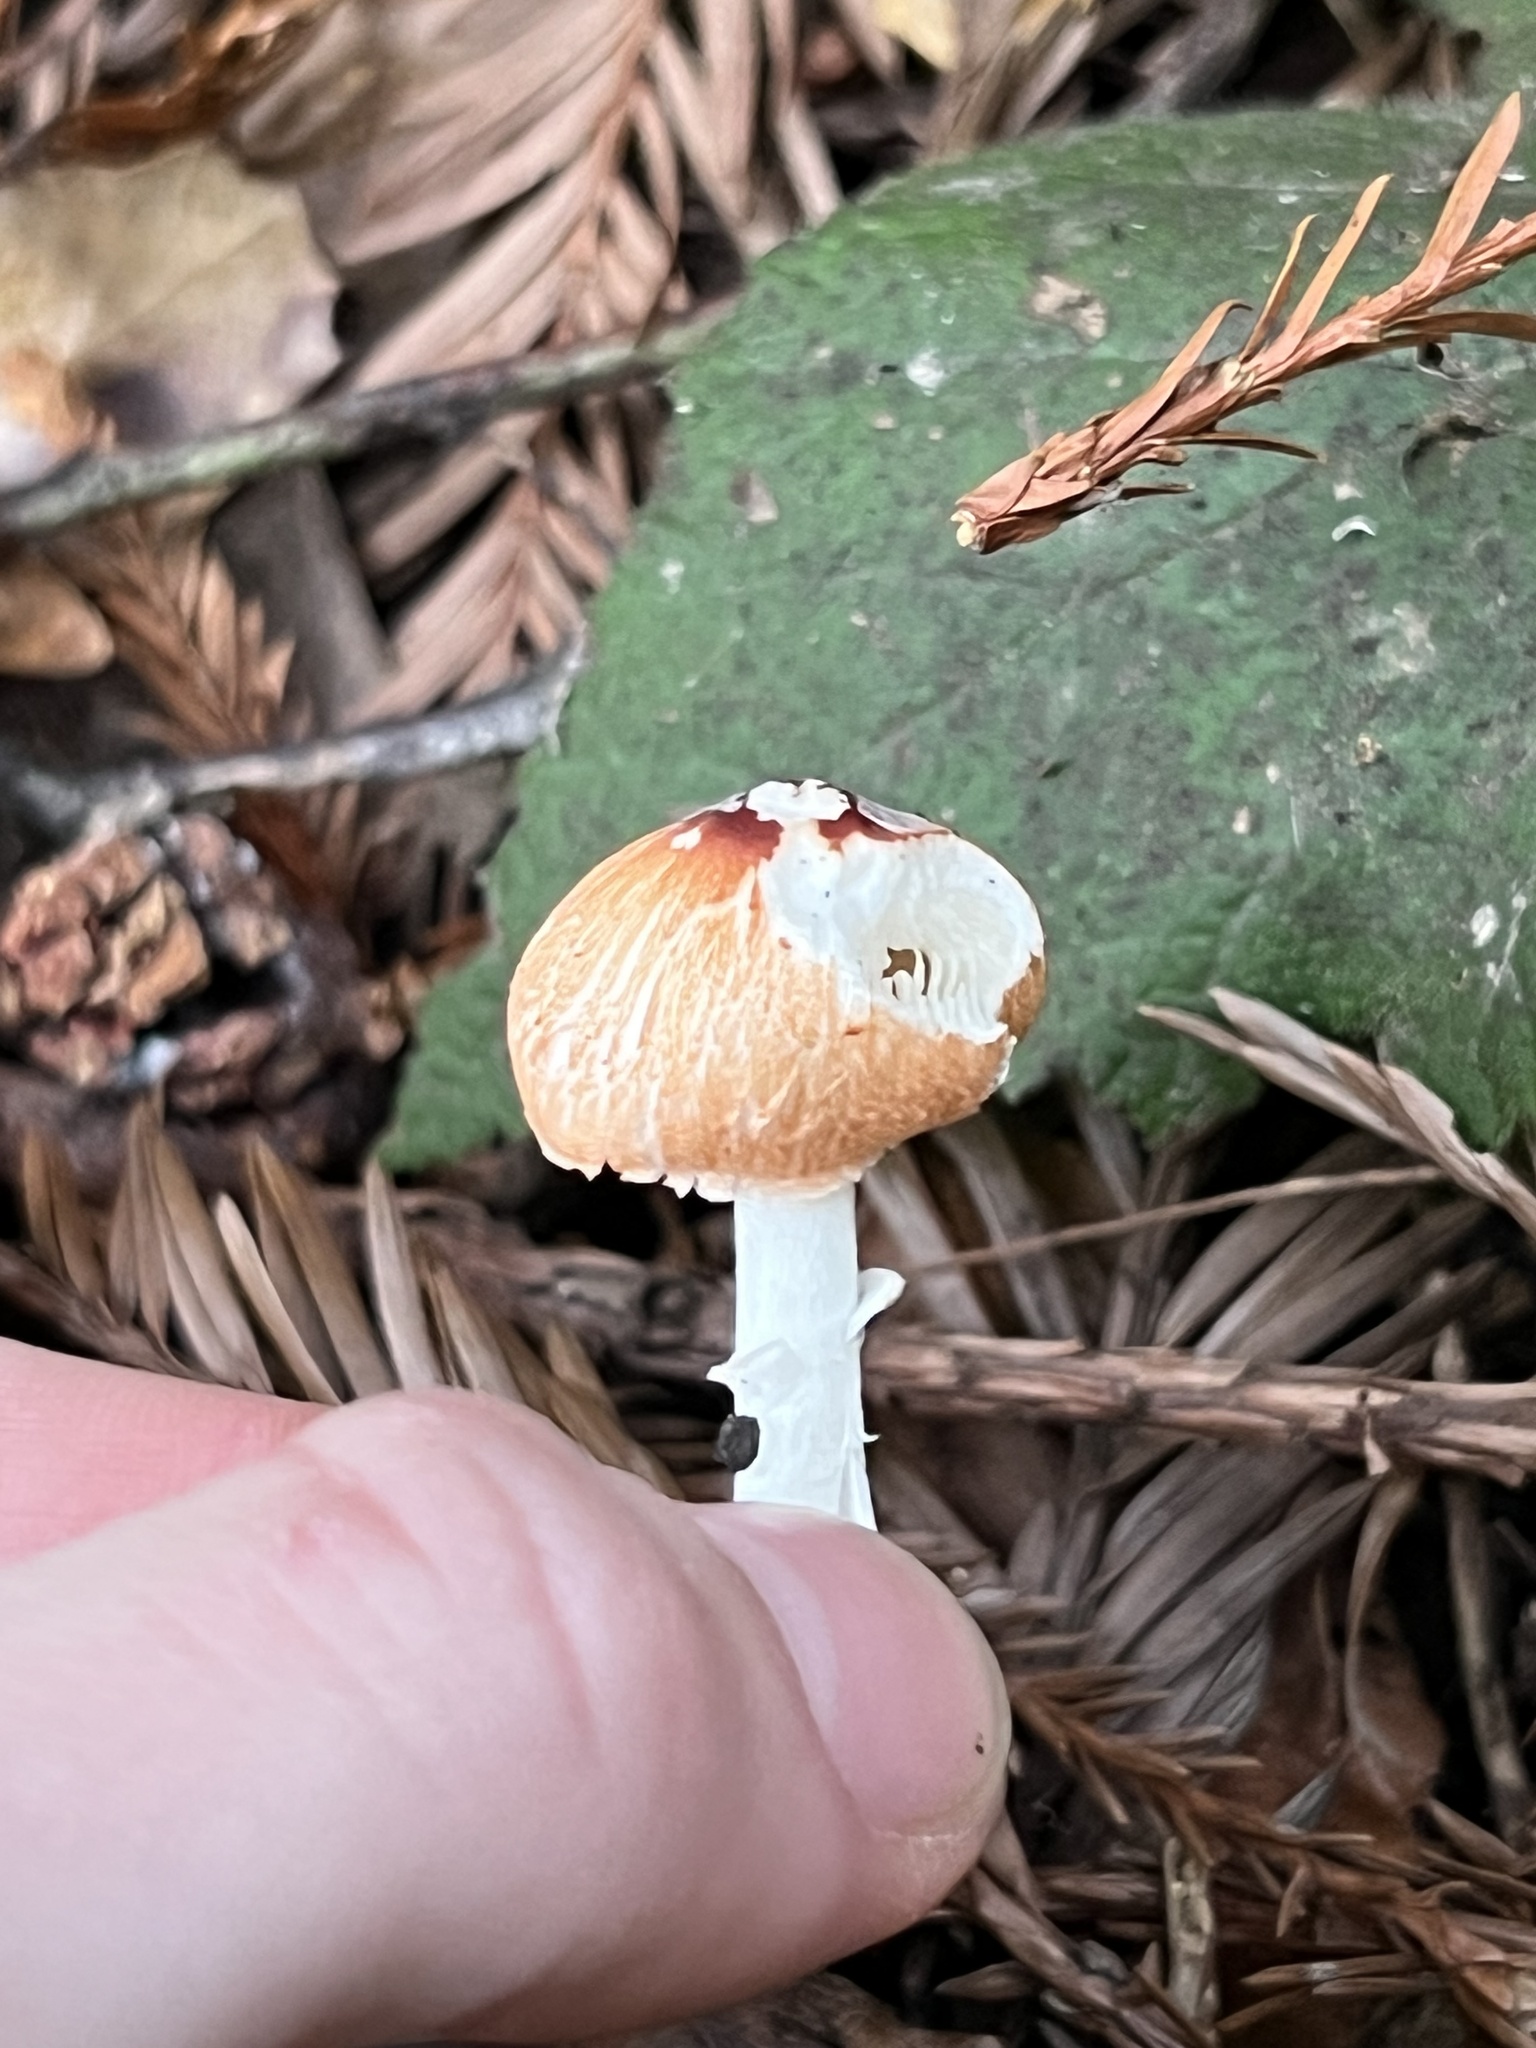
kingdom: Fungi
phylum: Basidiomycota
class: Agaricomycetes
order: Agaricales
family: Agaricaceae
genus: Lepiota
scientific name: Lepiota rubrotinctoides
